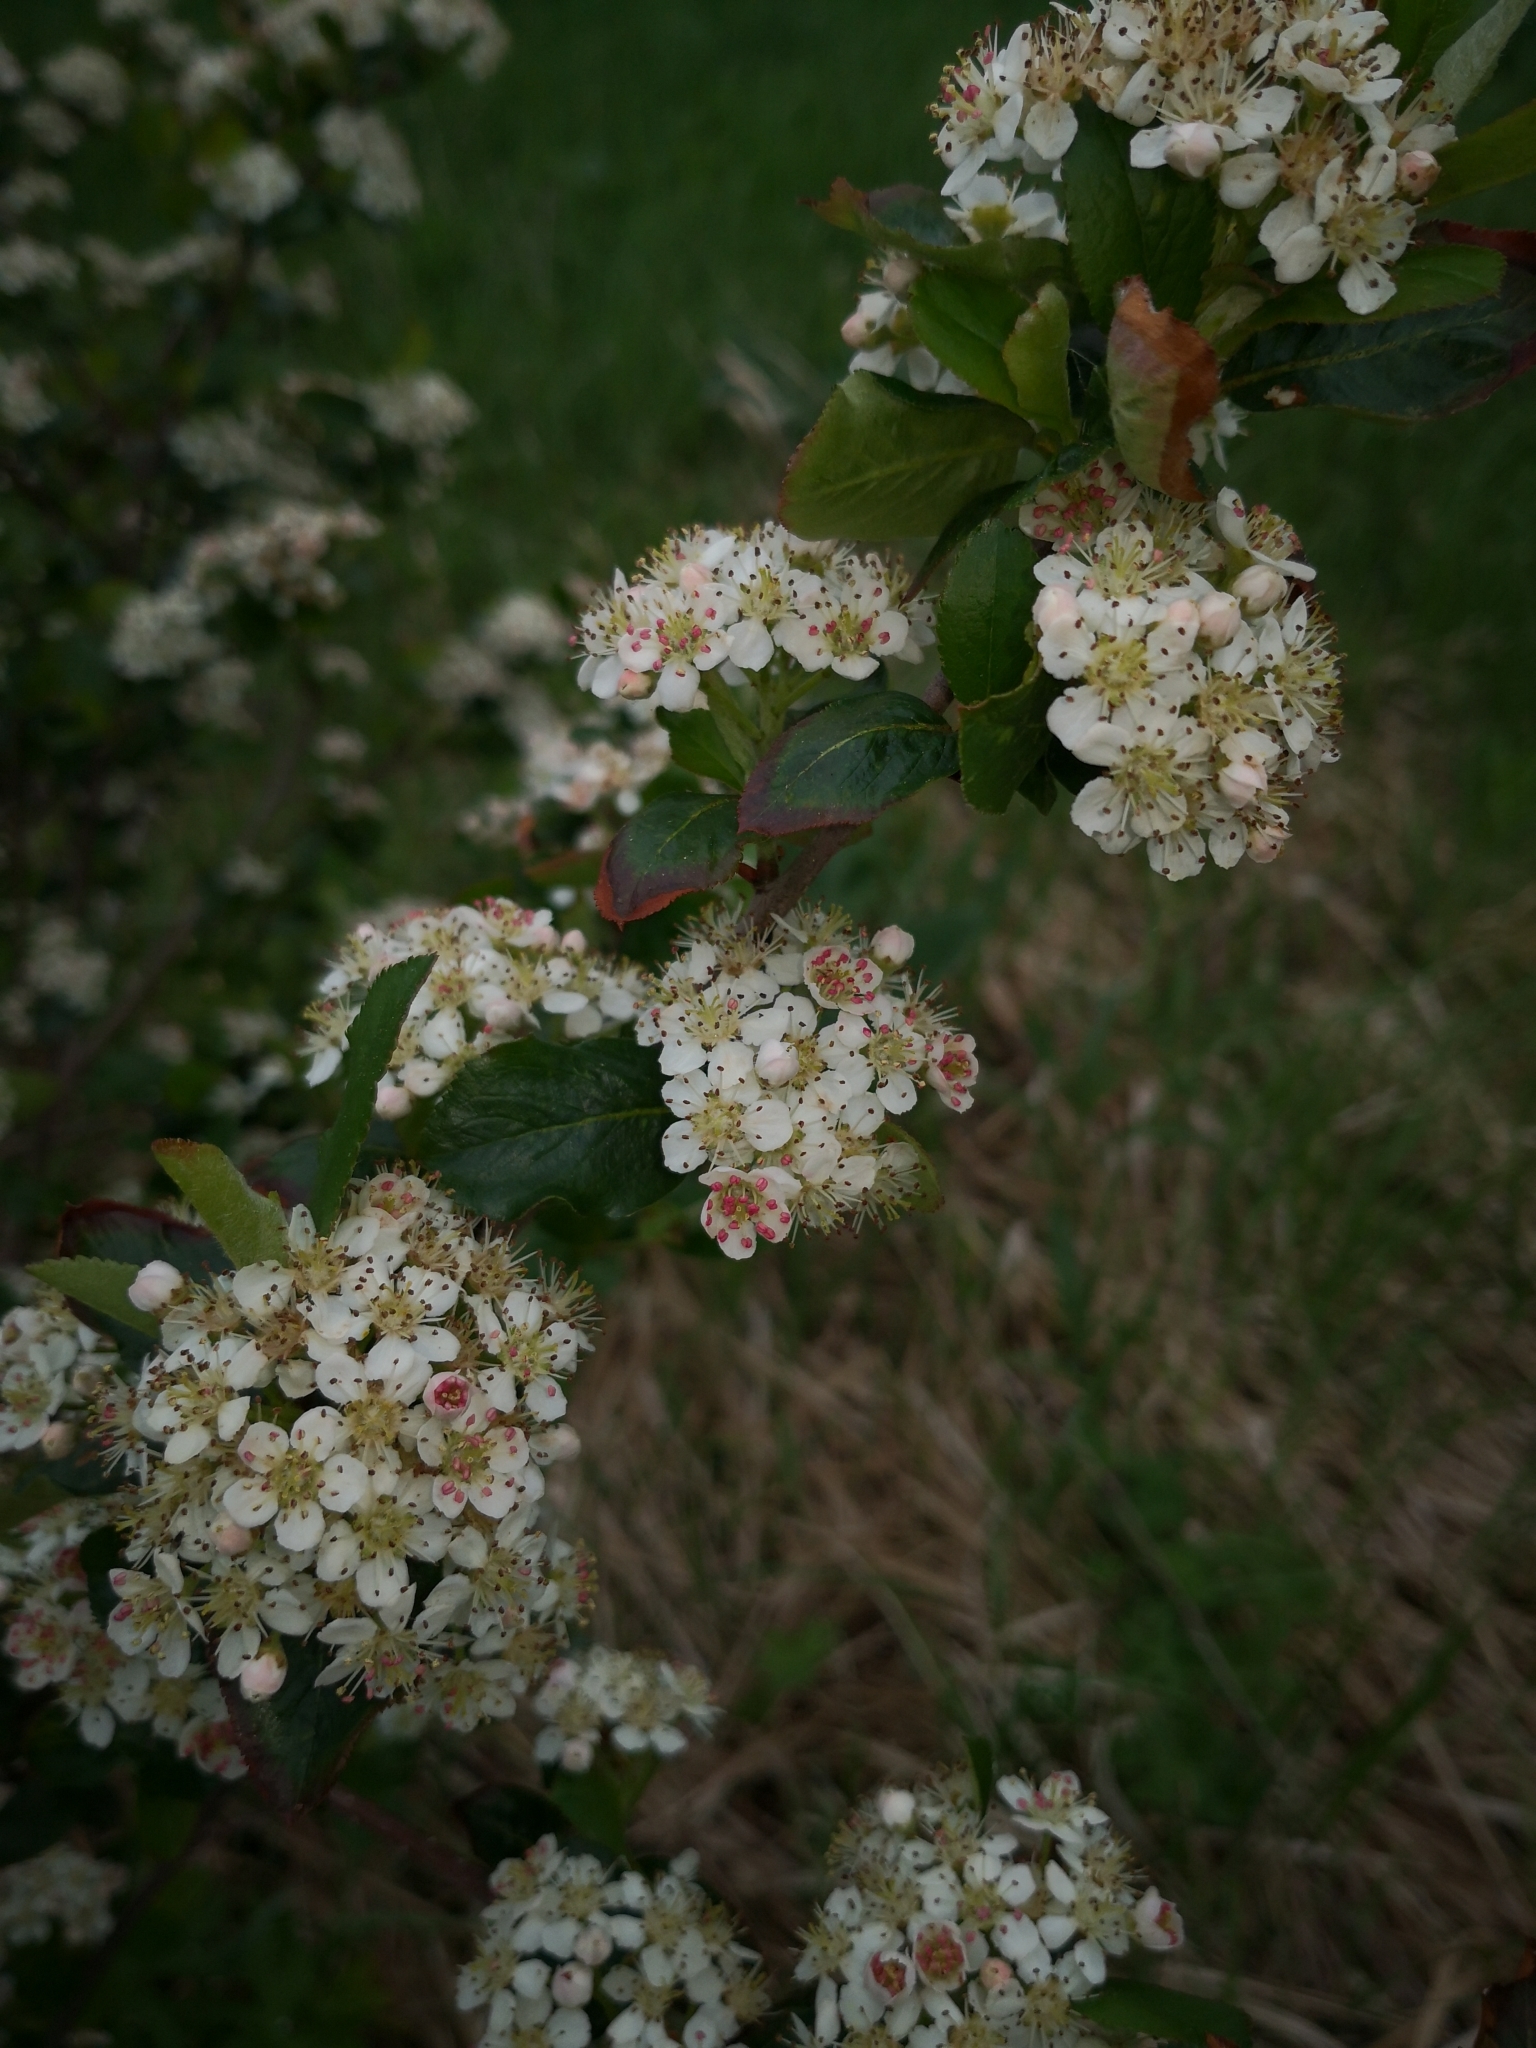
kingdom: Plantae
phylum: Tracheophyta
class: Magnoliopsida
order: Rosales
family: Rosaceae
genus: Sorbaronia
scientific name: Sorbaronia arsenii
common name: Arsène's mountain-ash
